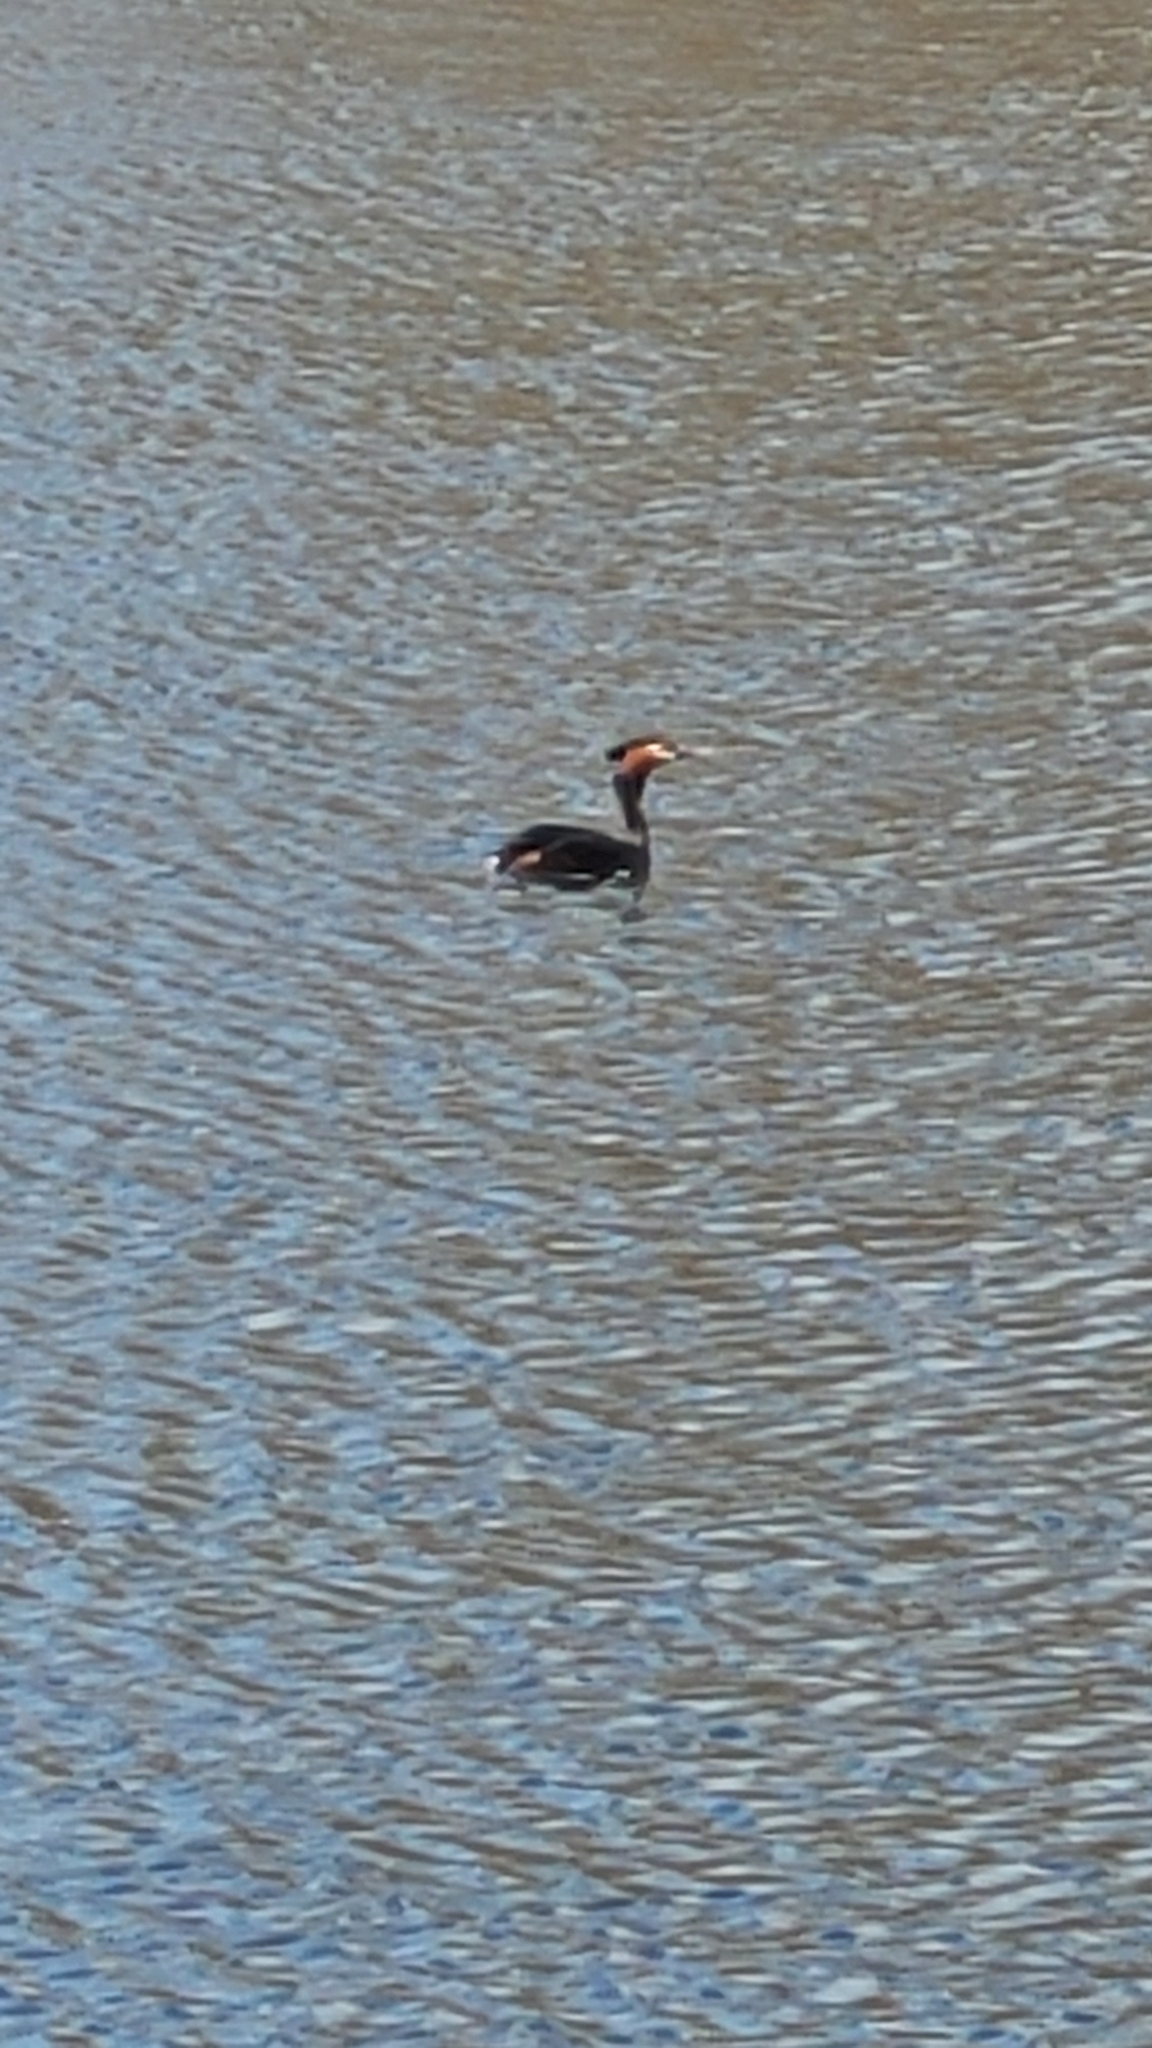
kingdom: Animalia
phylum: Chordata
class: Aves
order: Podicipediformes
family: Podicipedidae
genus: Podiceps
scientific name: Podiceps cristatus
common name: Great crested grebe
